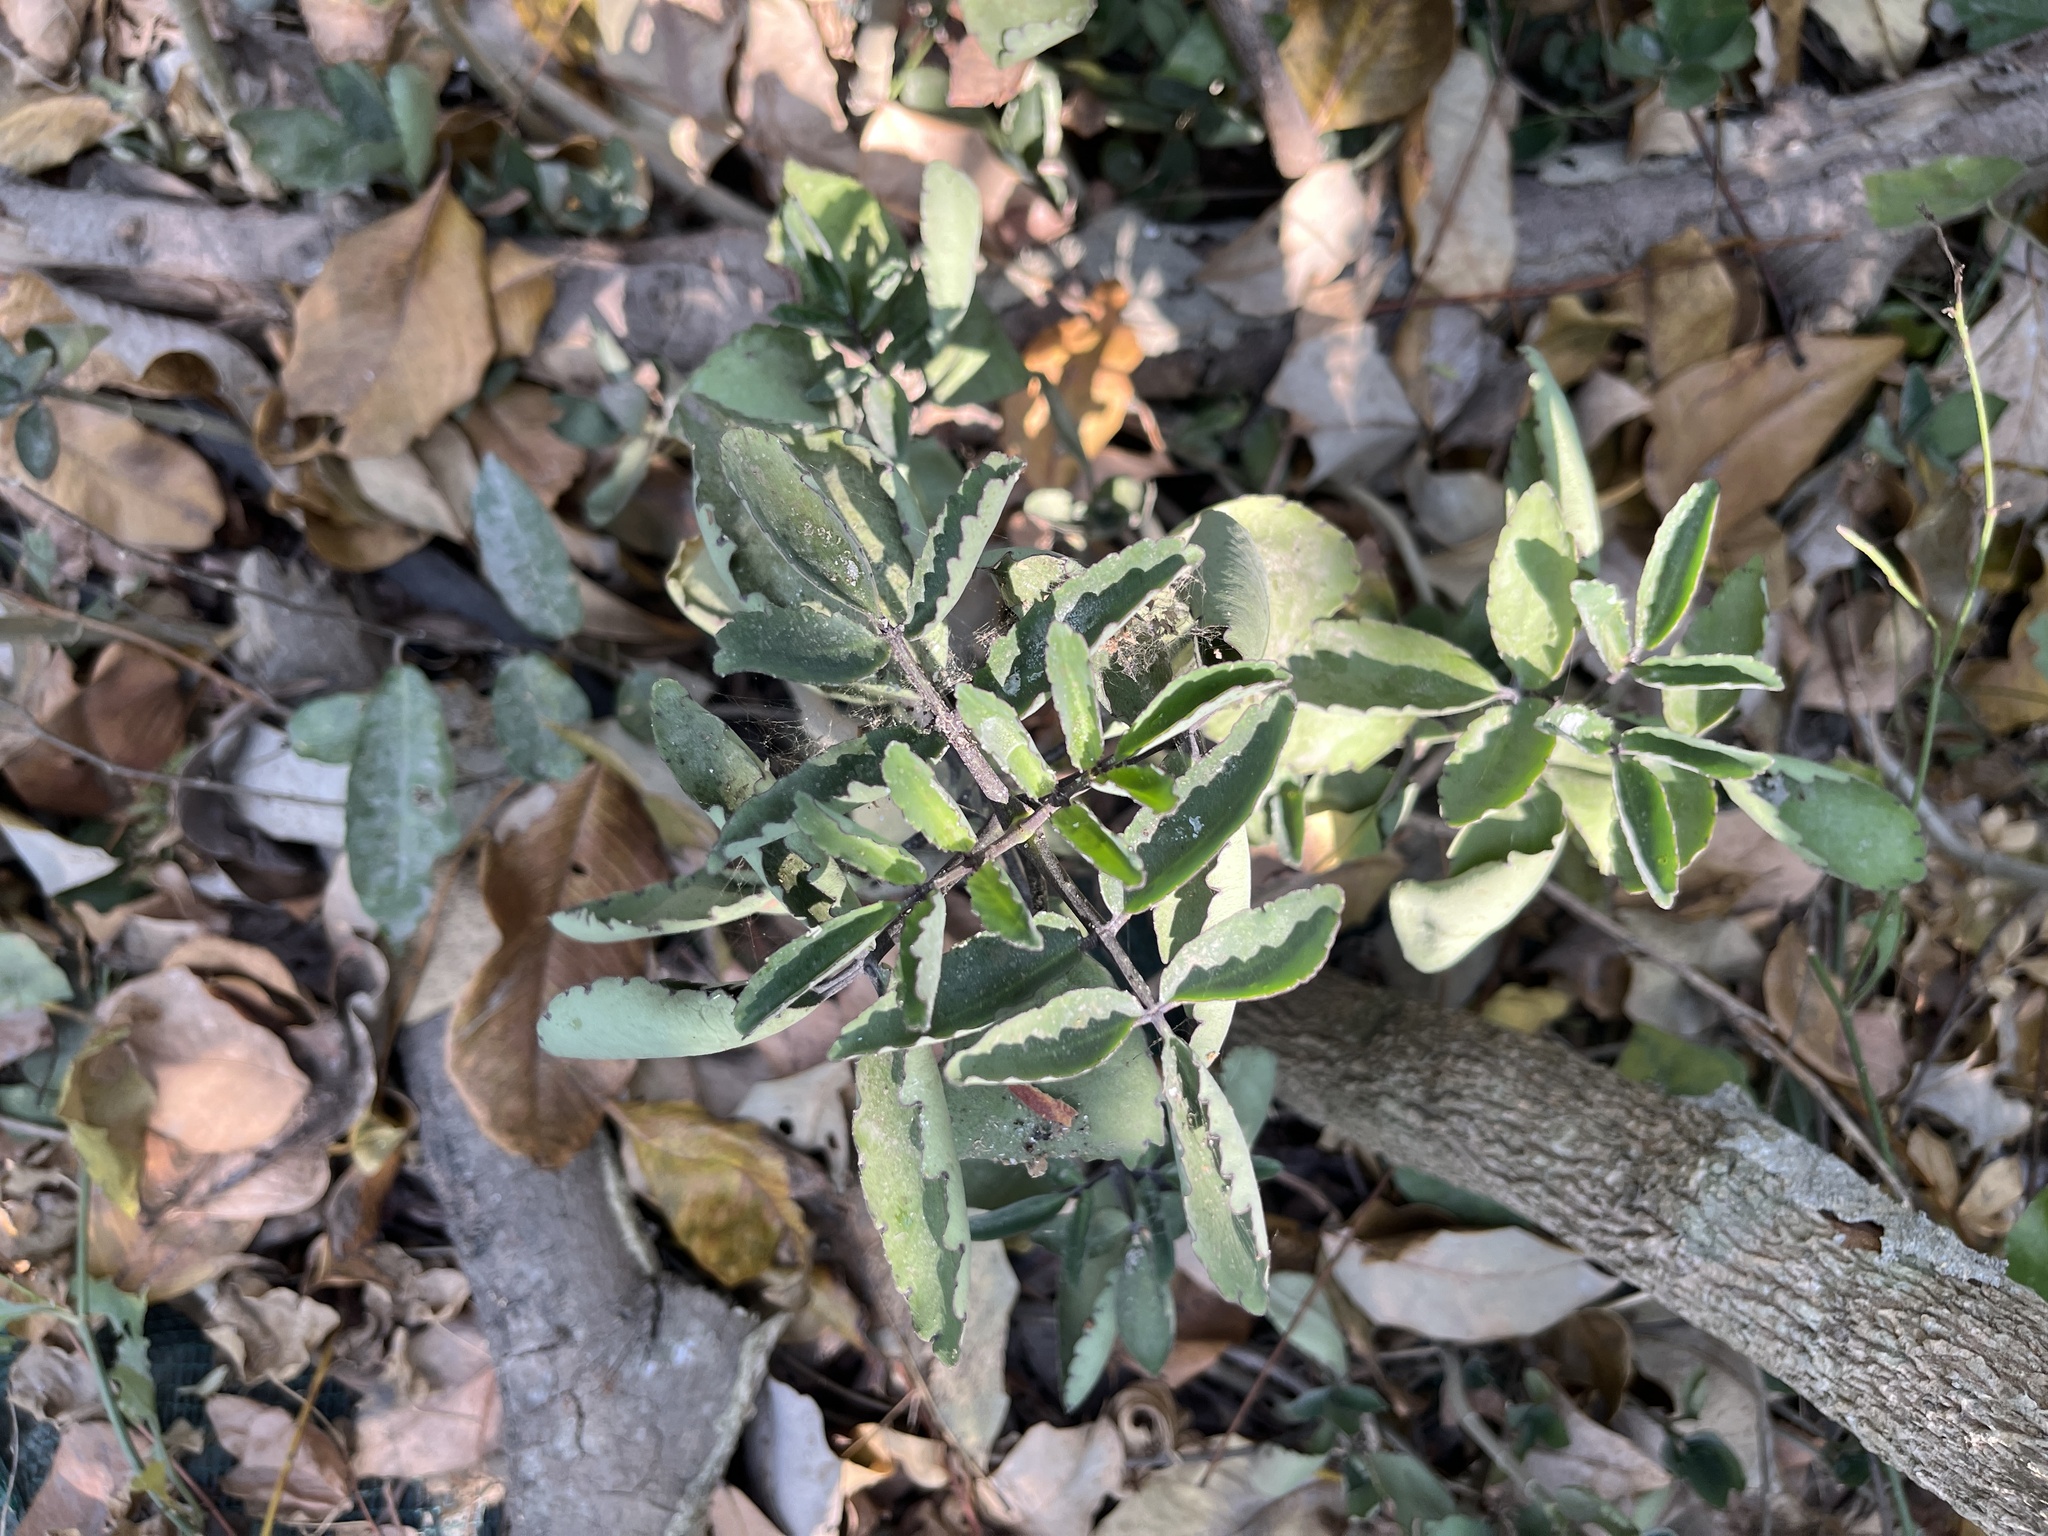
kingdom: Plantae
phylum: Tracheophyta
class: Magnoliopsida
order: Saxifragales
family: Crassulaceae
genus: Kalanchoe
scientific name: Kalanchoe pinnata
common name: Cathedral bells
